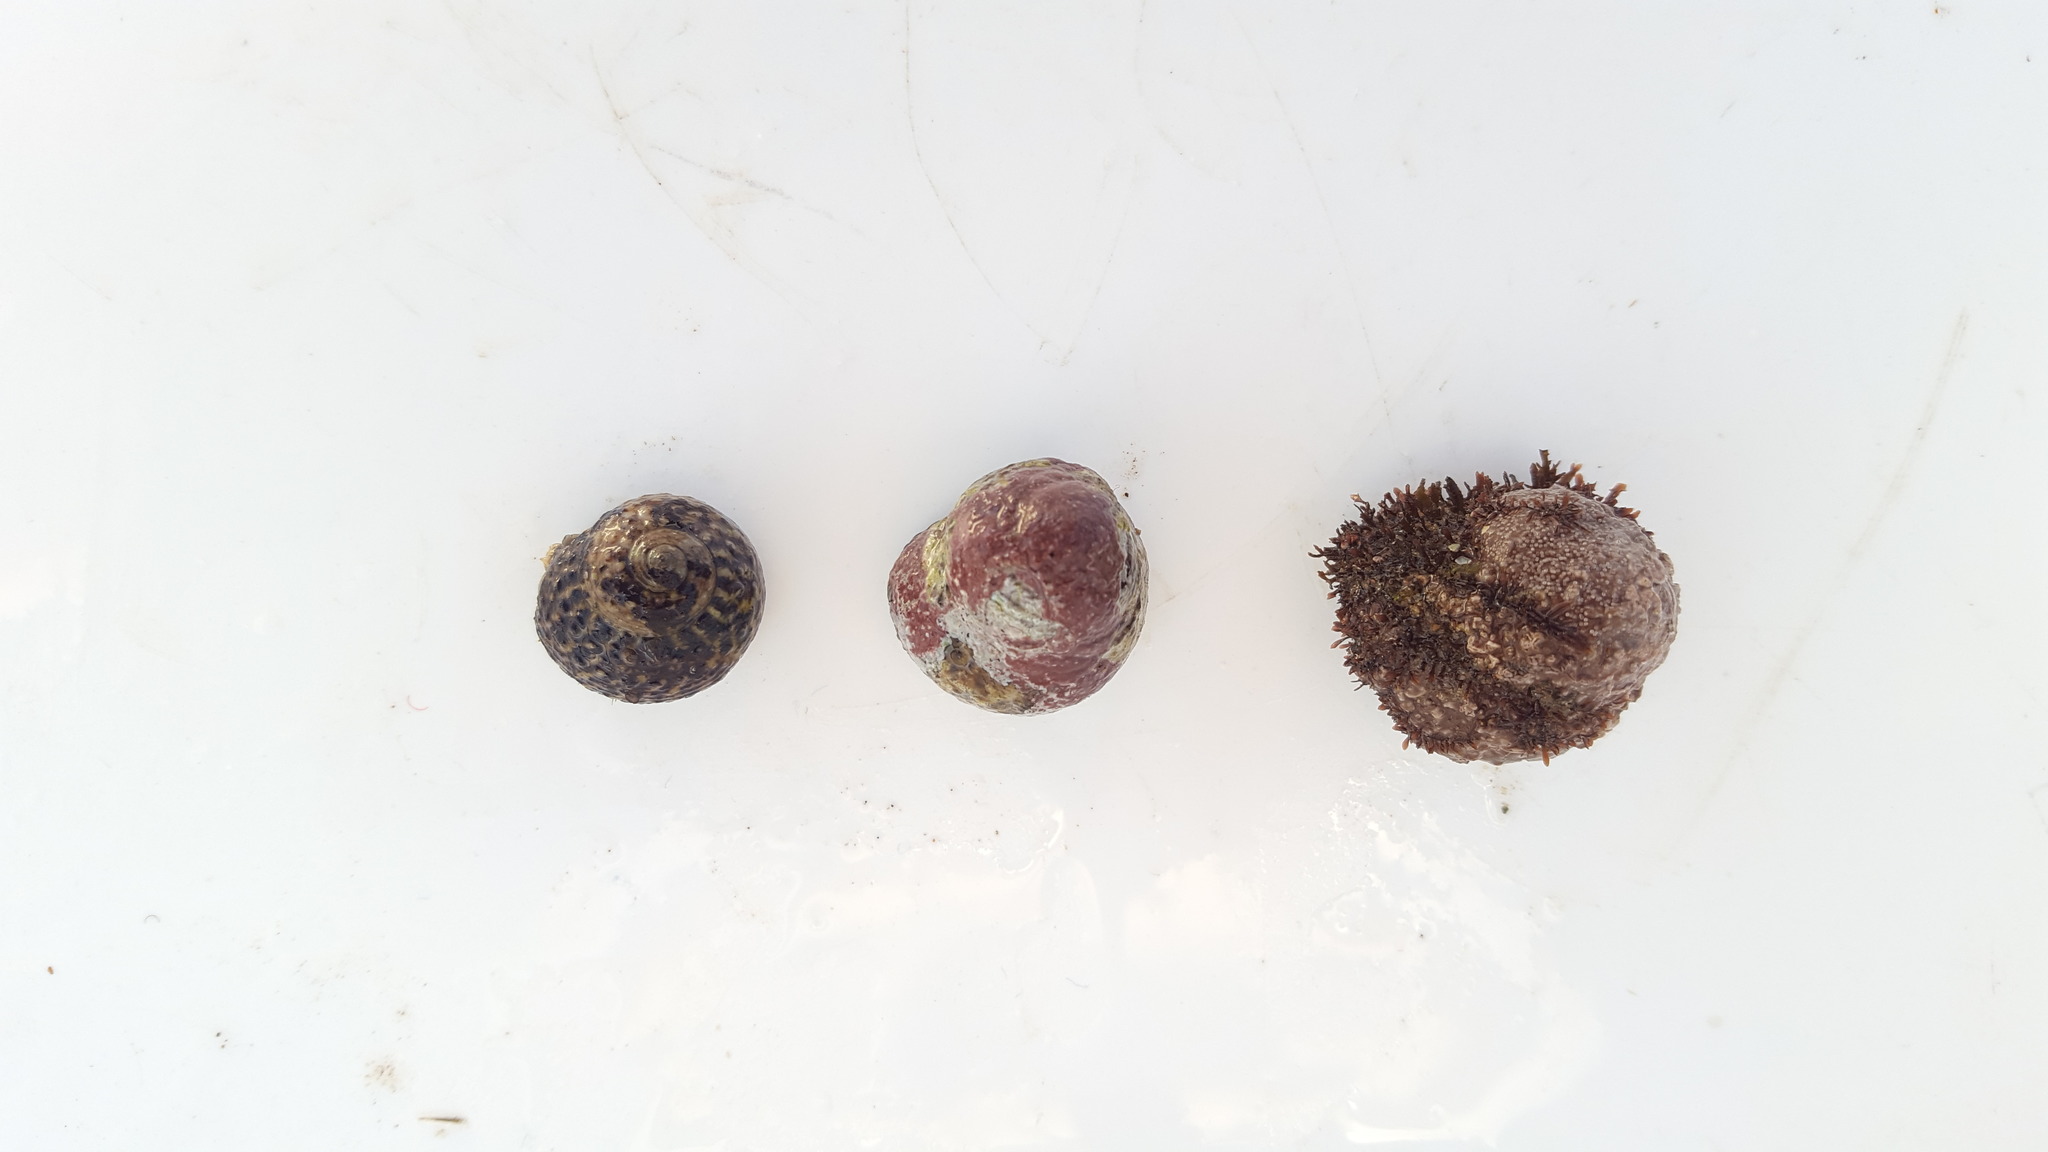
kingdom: Animalia
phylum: Mollusca
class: Gastropoda
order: Trochida
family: Tegulidae
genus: Tegula
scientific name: Tegula eiseni
